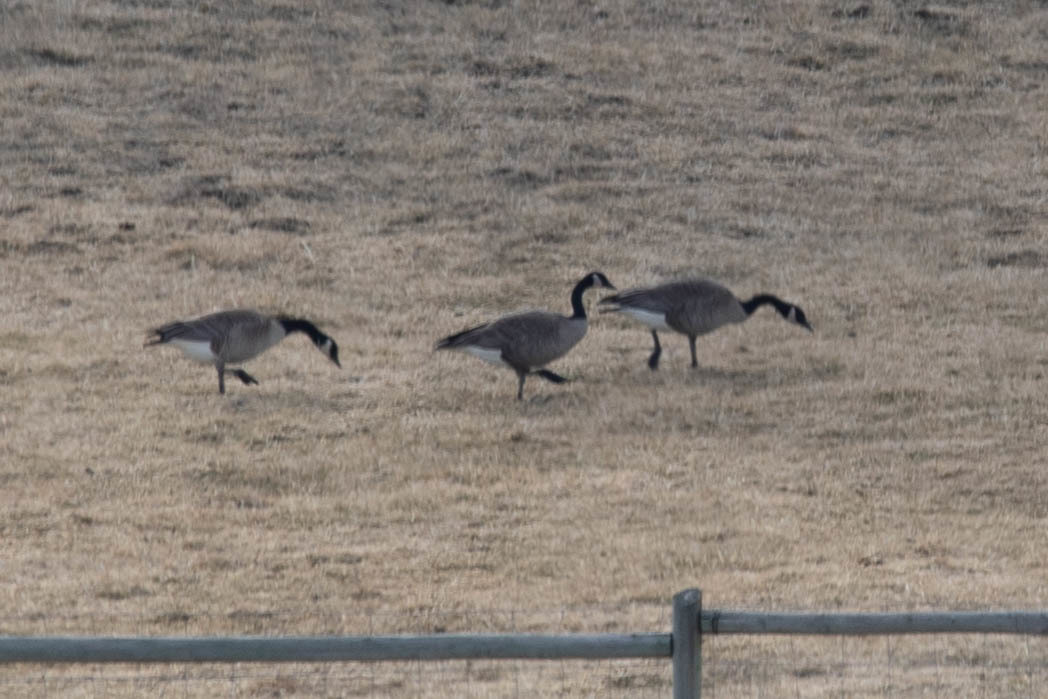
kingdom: Animalia
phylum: Chordata
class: Aves
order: Anseriformes
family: Anatidae
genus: Branta
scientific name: Branta canadensis
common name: Canada goose
